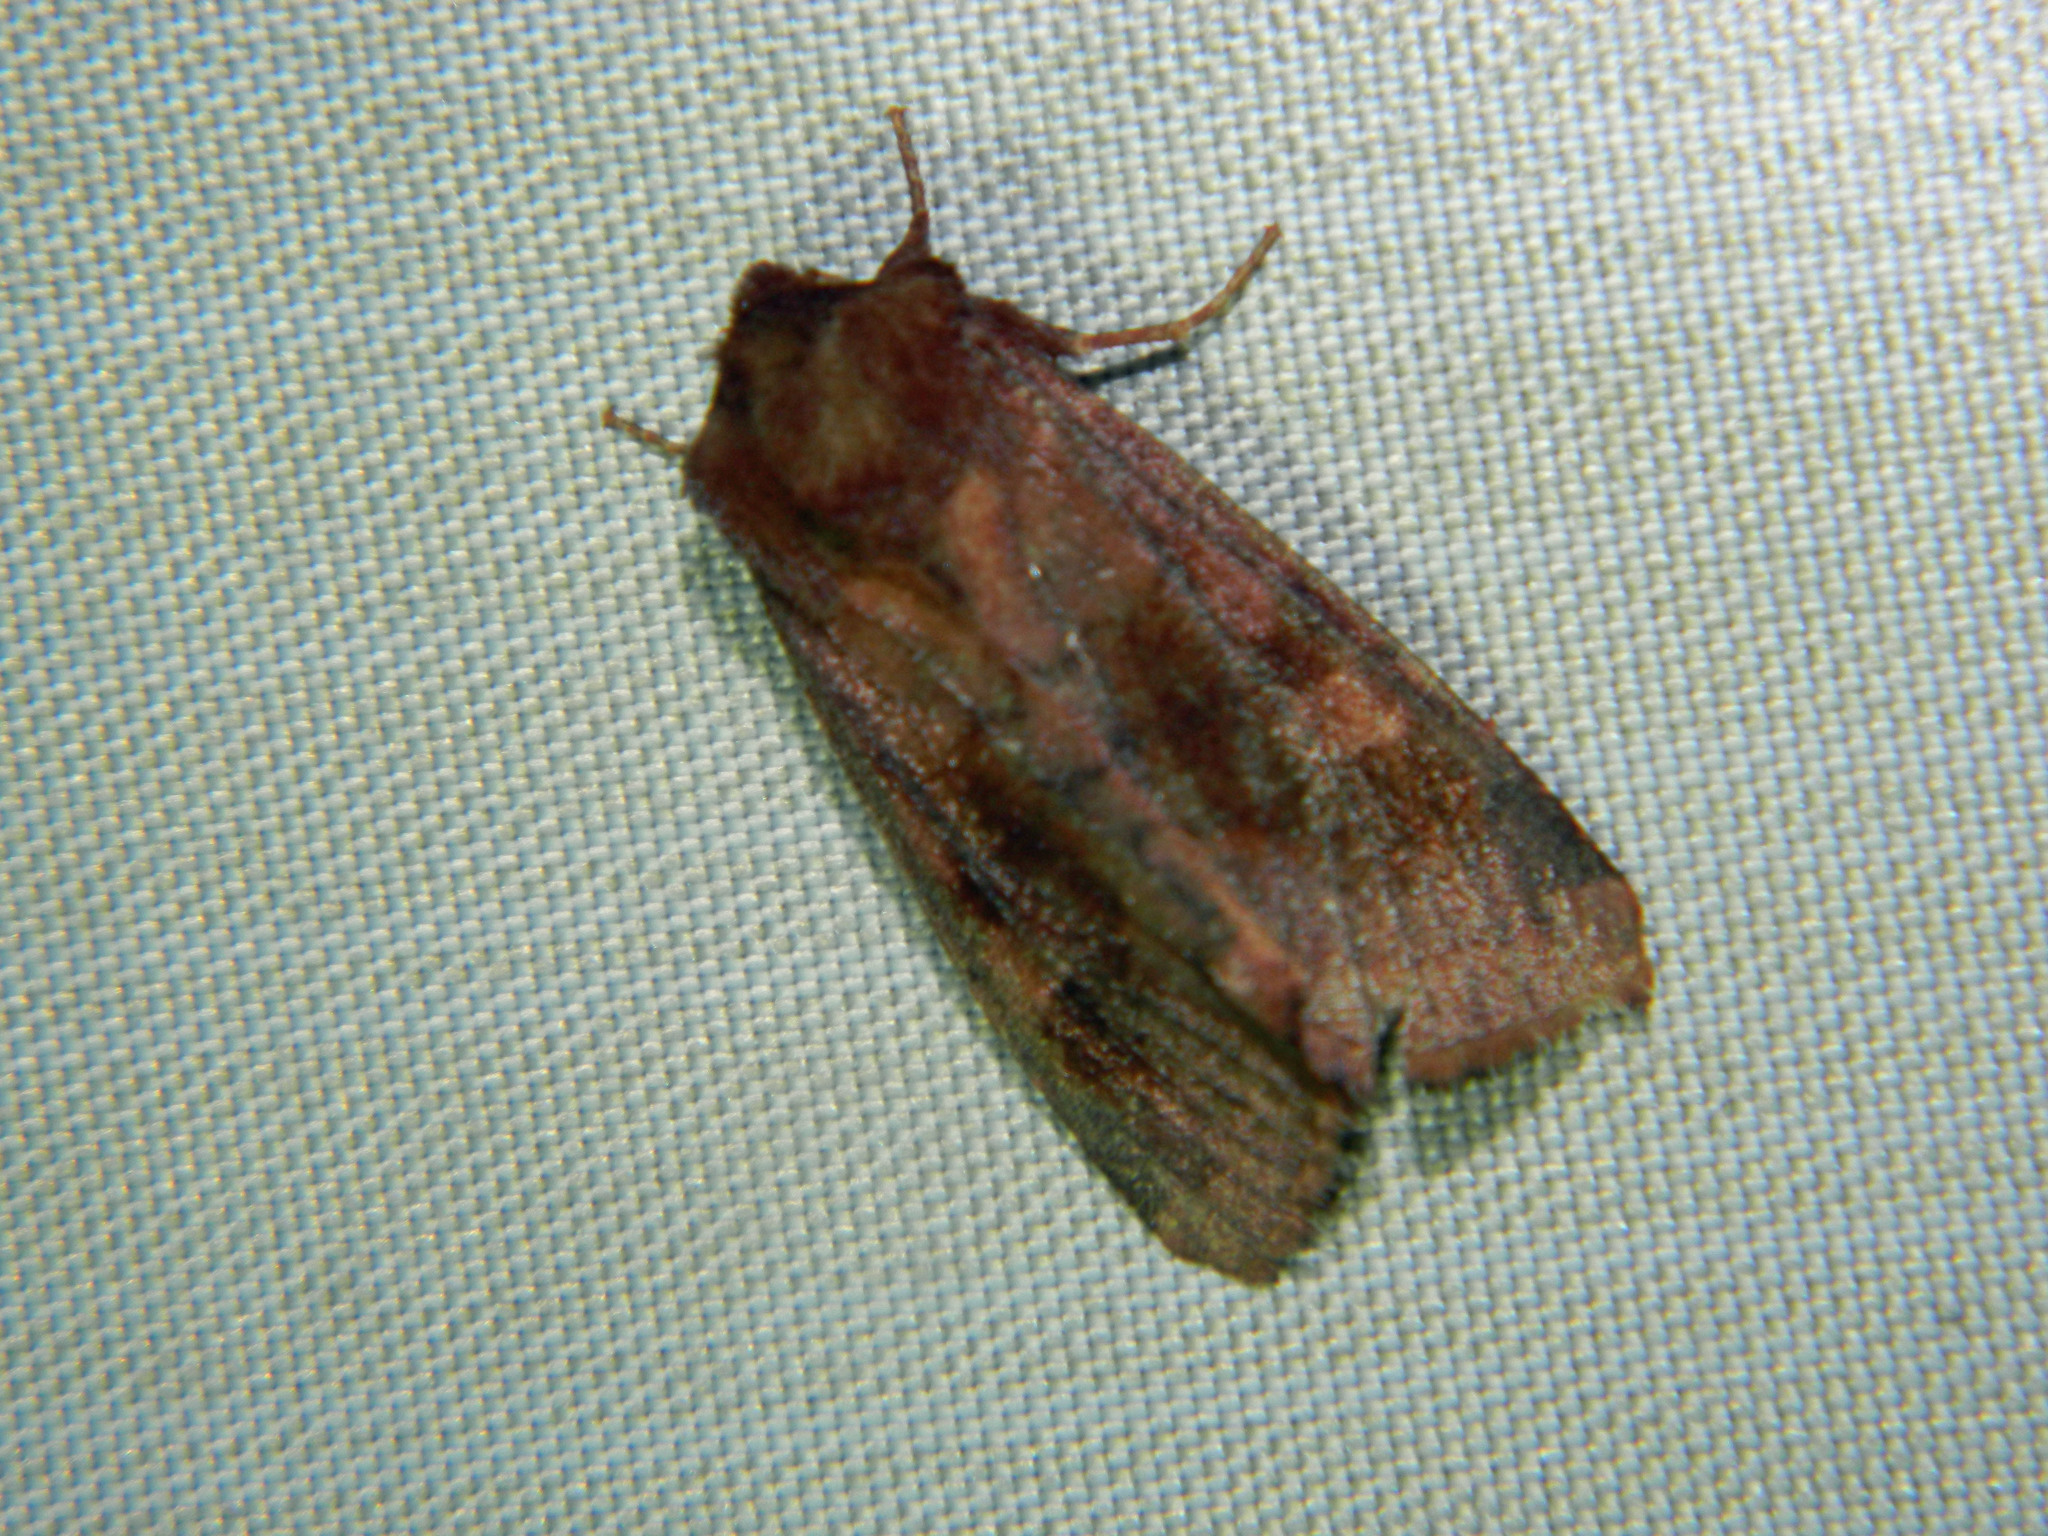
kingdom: Animalia
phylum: Arthropoda
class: Insecta
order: Lepidoptera
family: Noctuidae
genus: Nephelodes
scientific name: Nephelodes minians
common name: Bronzed cutworm
